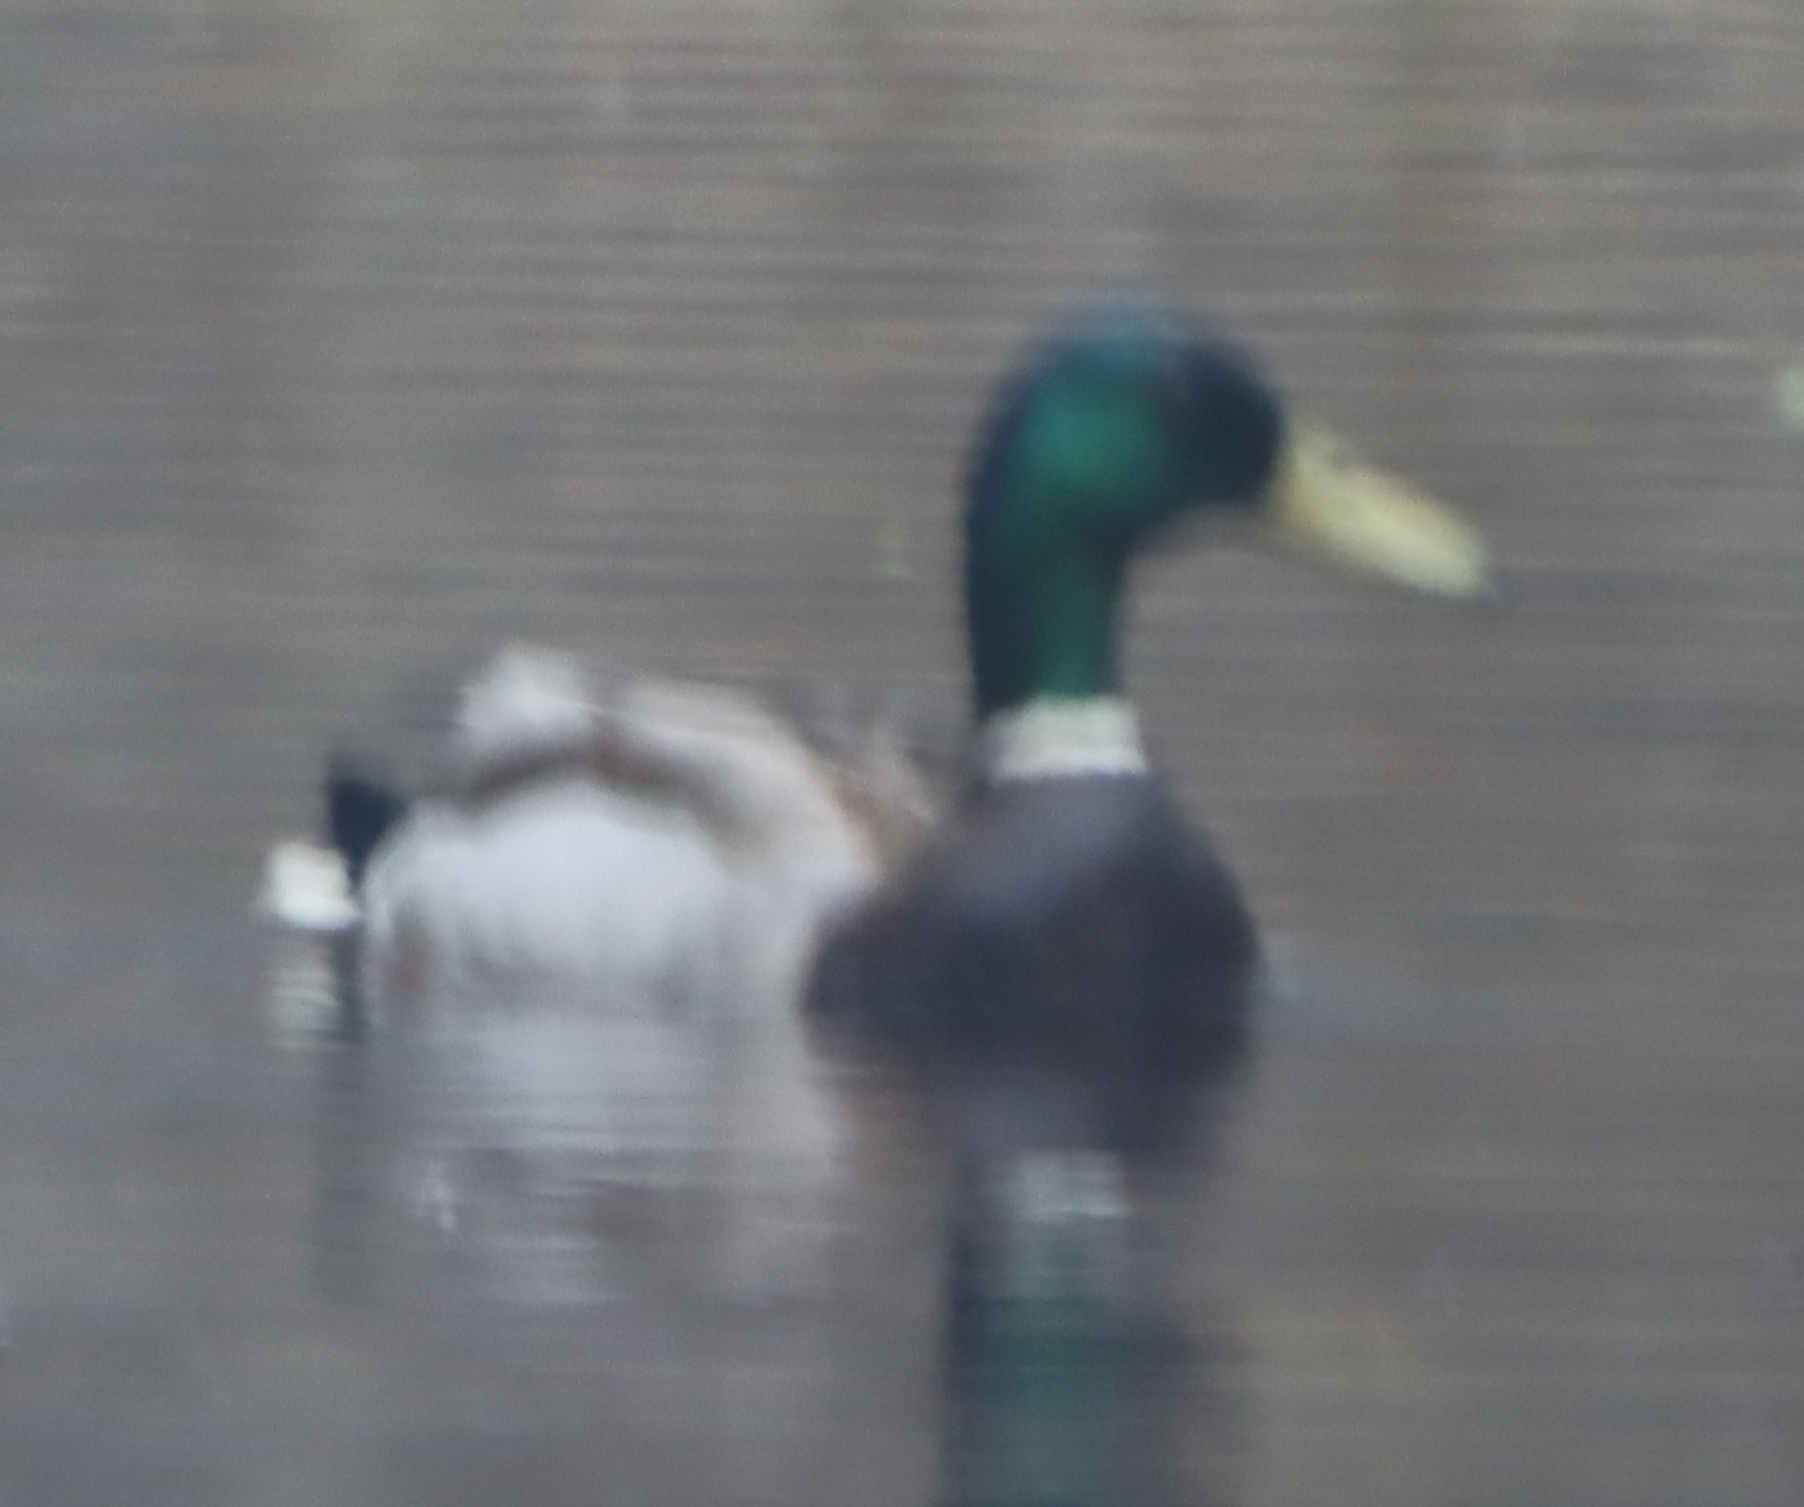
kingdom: Animalia
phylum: Chordata
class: Aves
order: Anseriformes
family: Anatidae
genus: Anas
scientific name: Anas platyrhynchos
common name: Mallard
